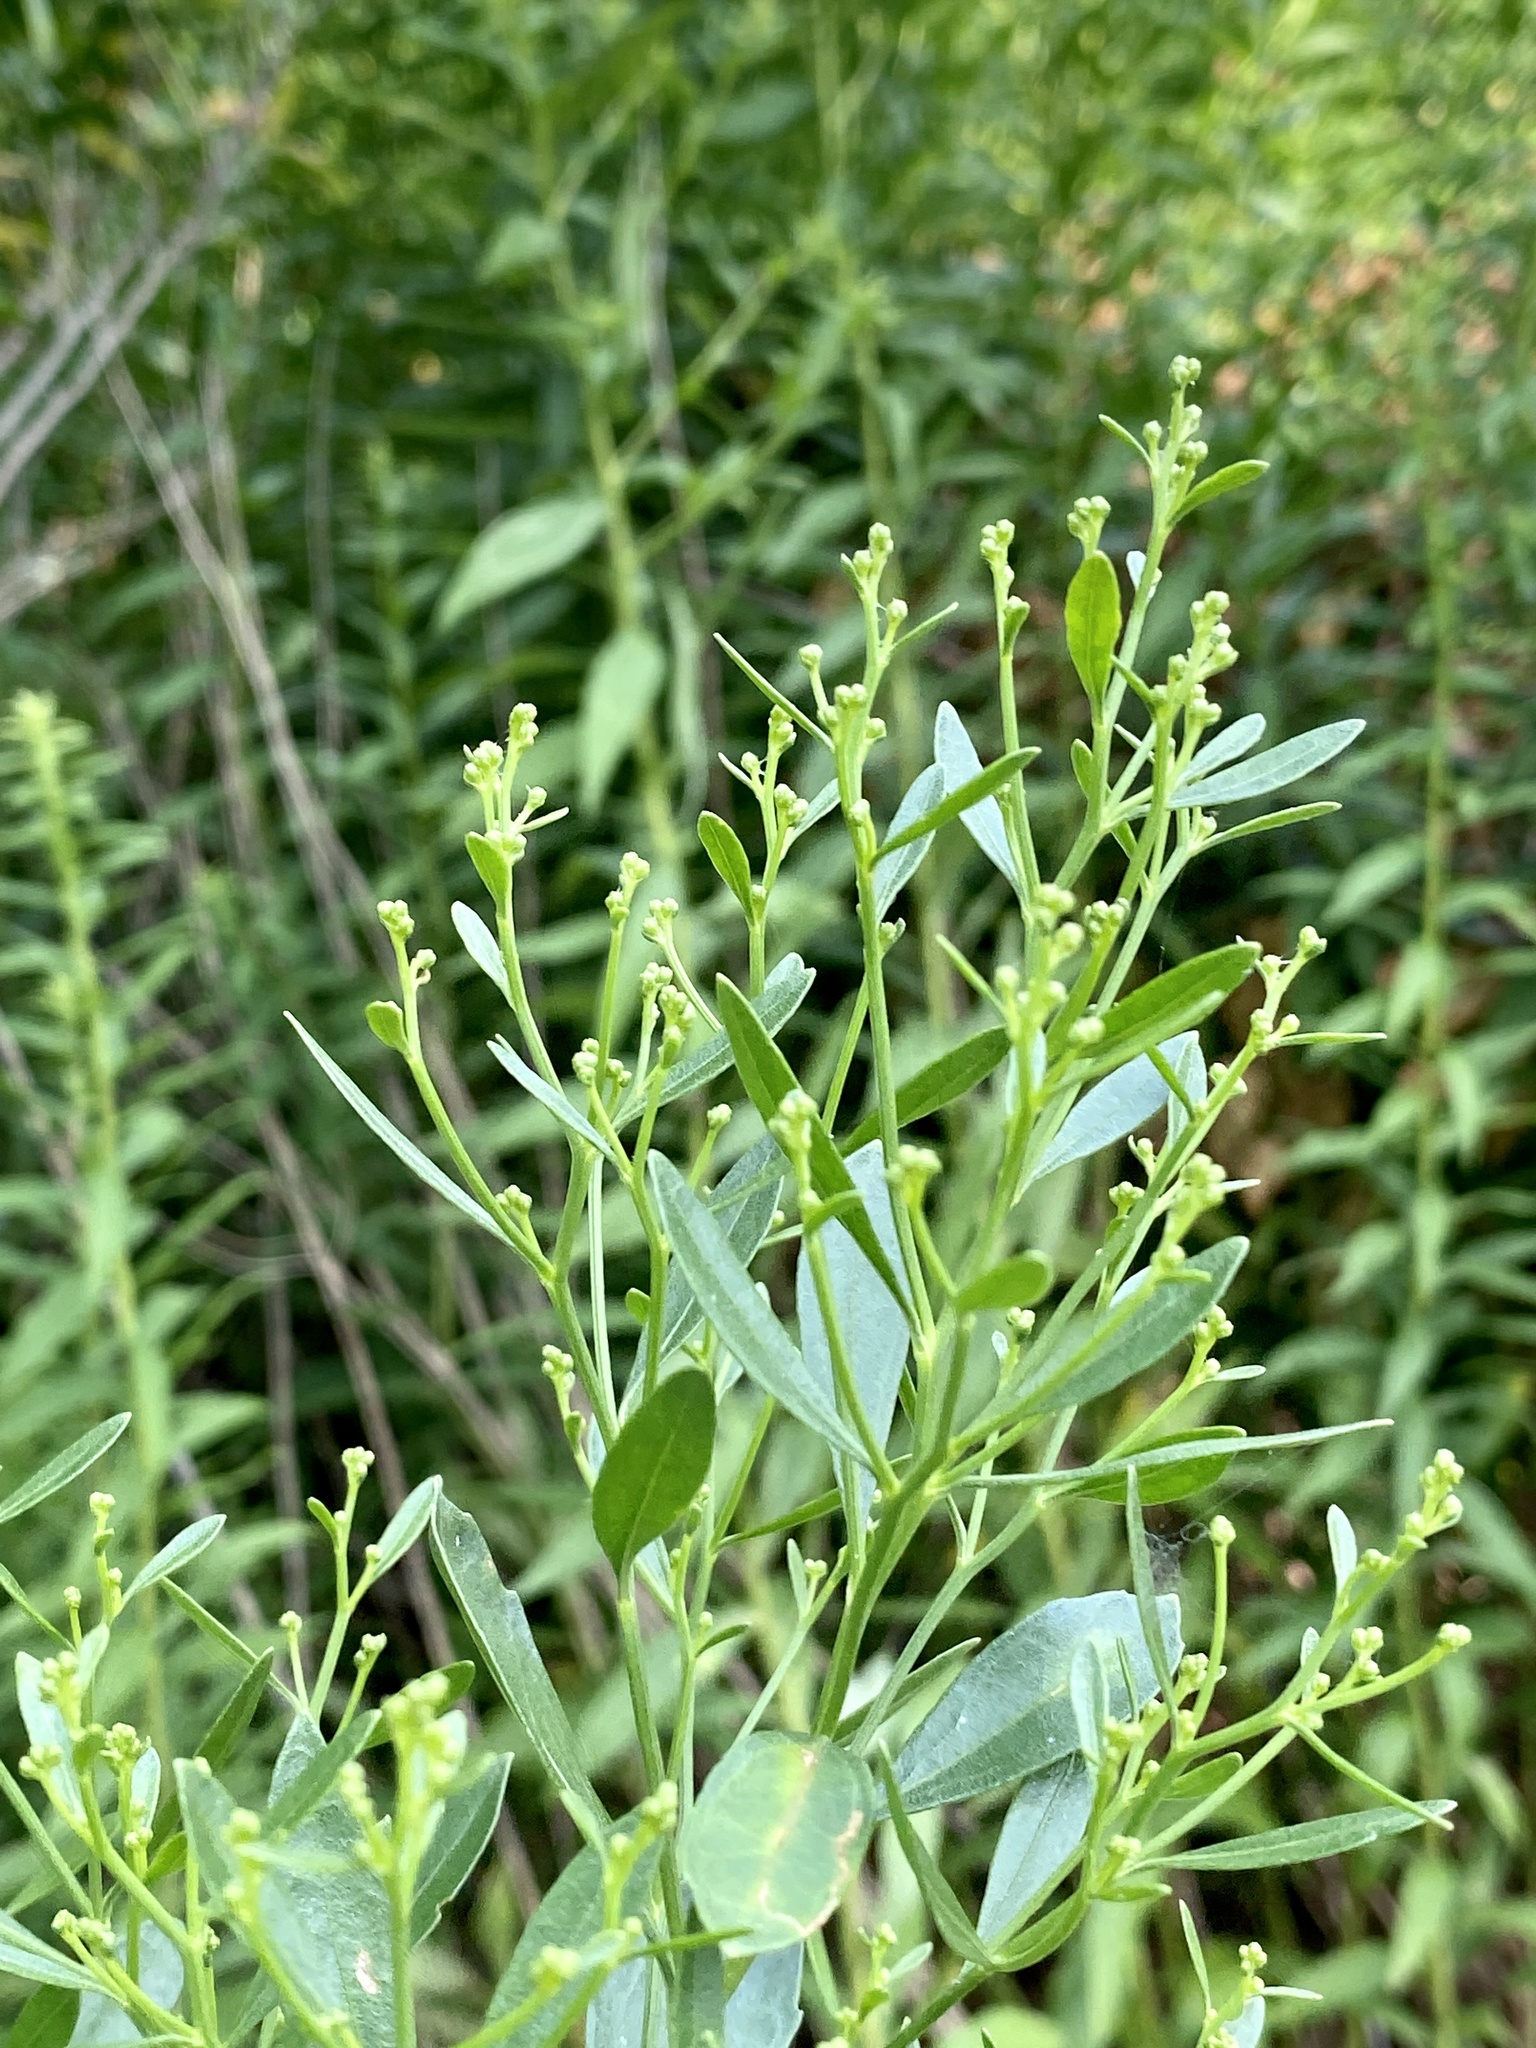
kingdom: Plantae
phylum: Tracheophyta
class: Magnoliopsida
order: Asterales
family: Asteraceae
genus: Baccharis
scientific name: Baccharis halimifolia
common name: Eastern baccharis
